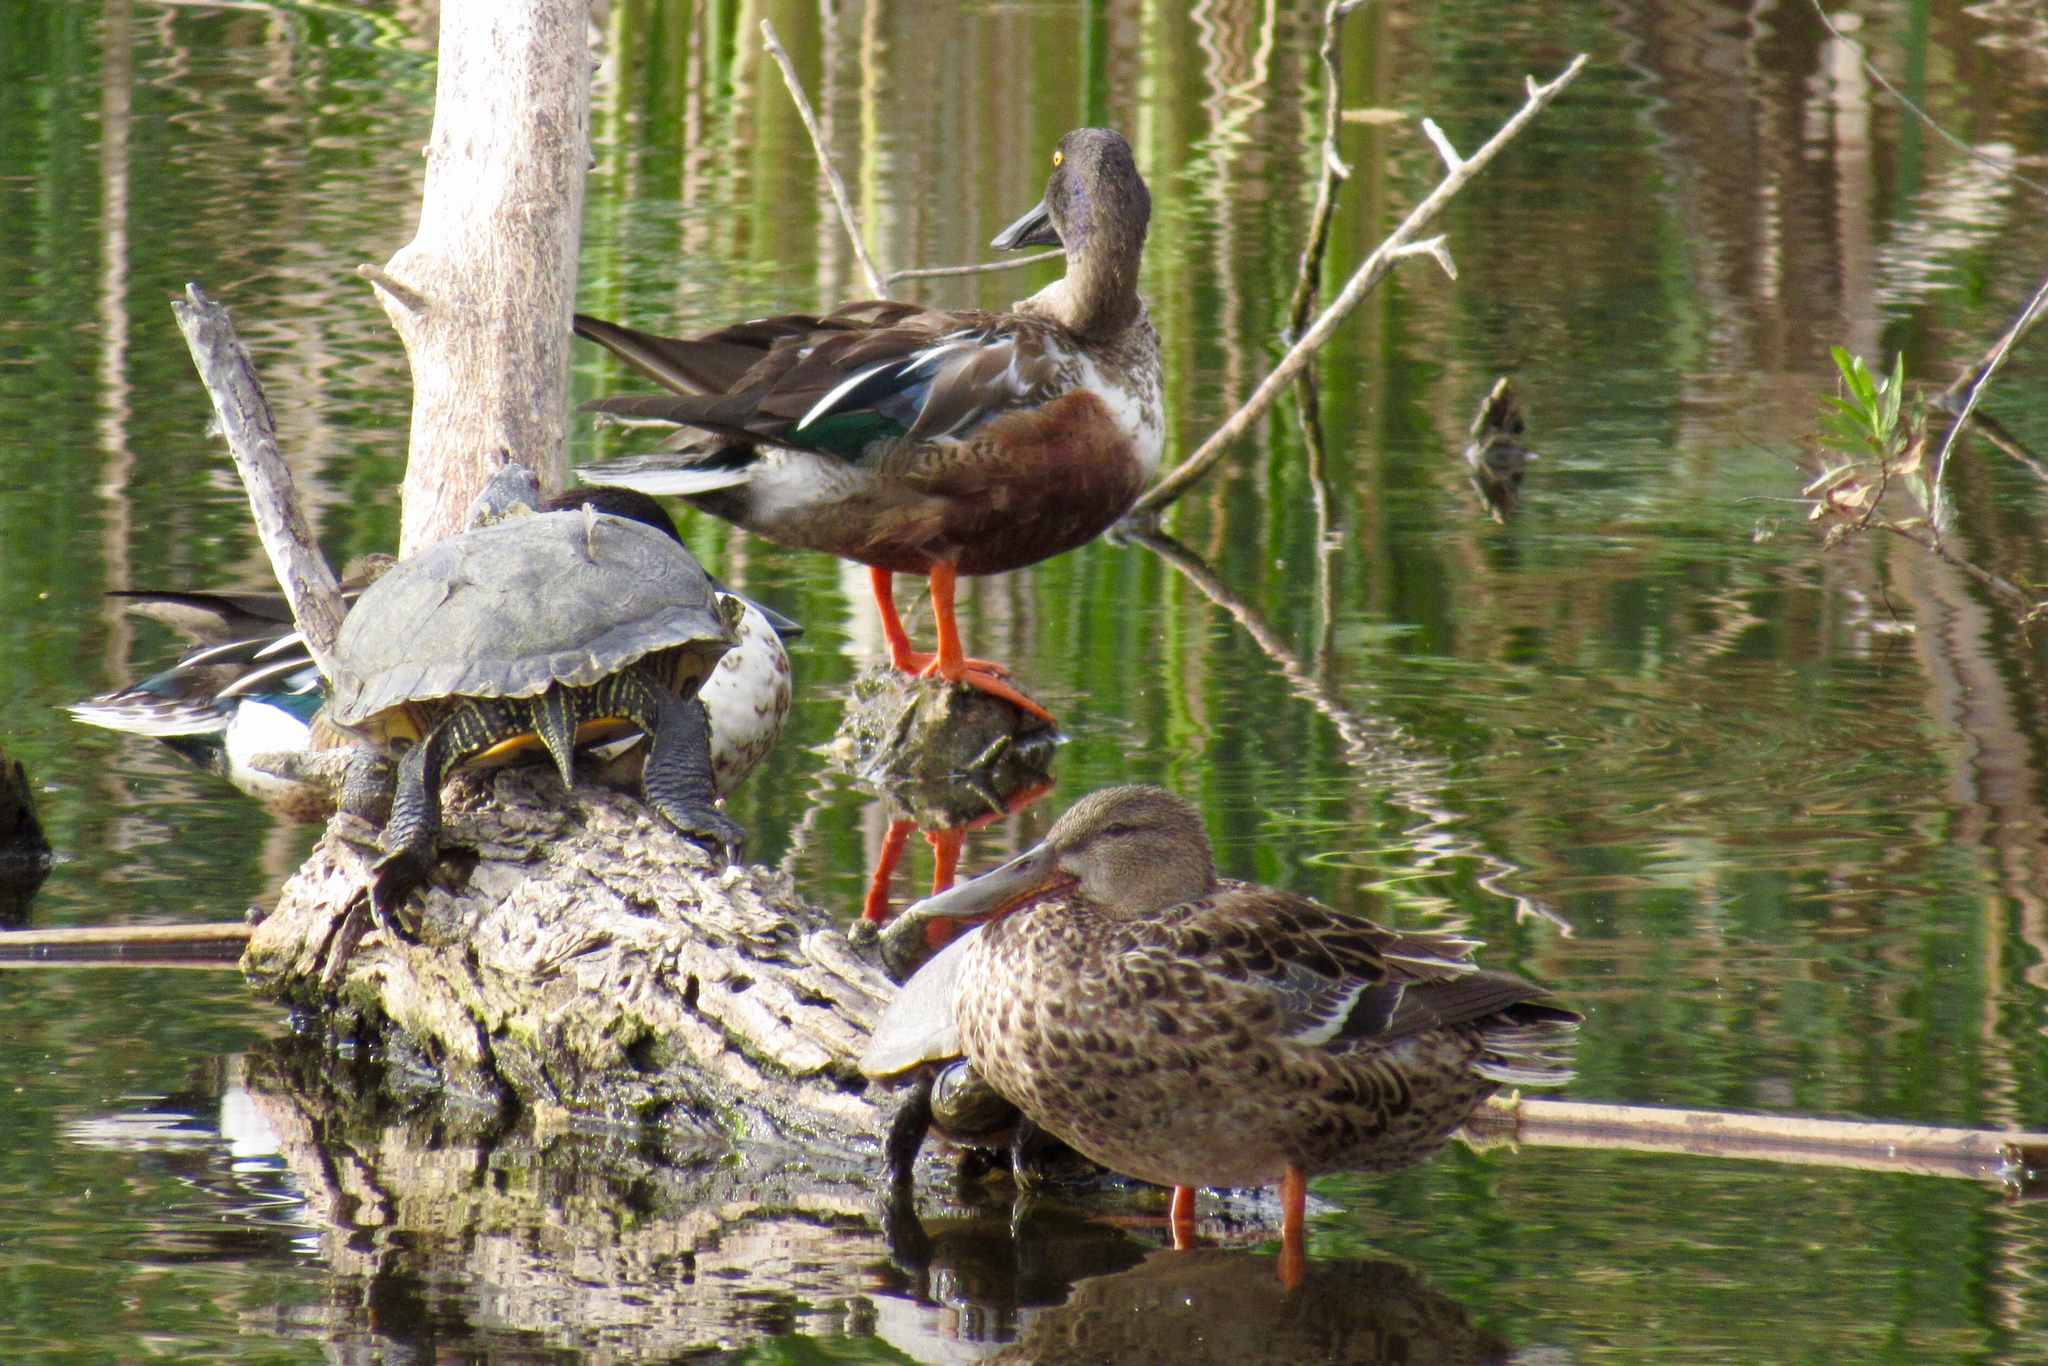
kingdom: Animalia
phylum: Chordata
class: Aves
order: Anseriformes
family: Anatidae
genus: Spatula
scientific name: Spatula clypeata
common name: Northern shoveler
